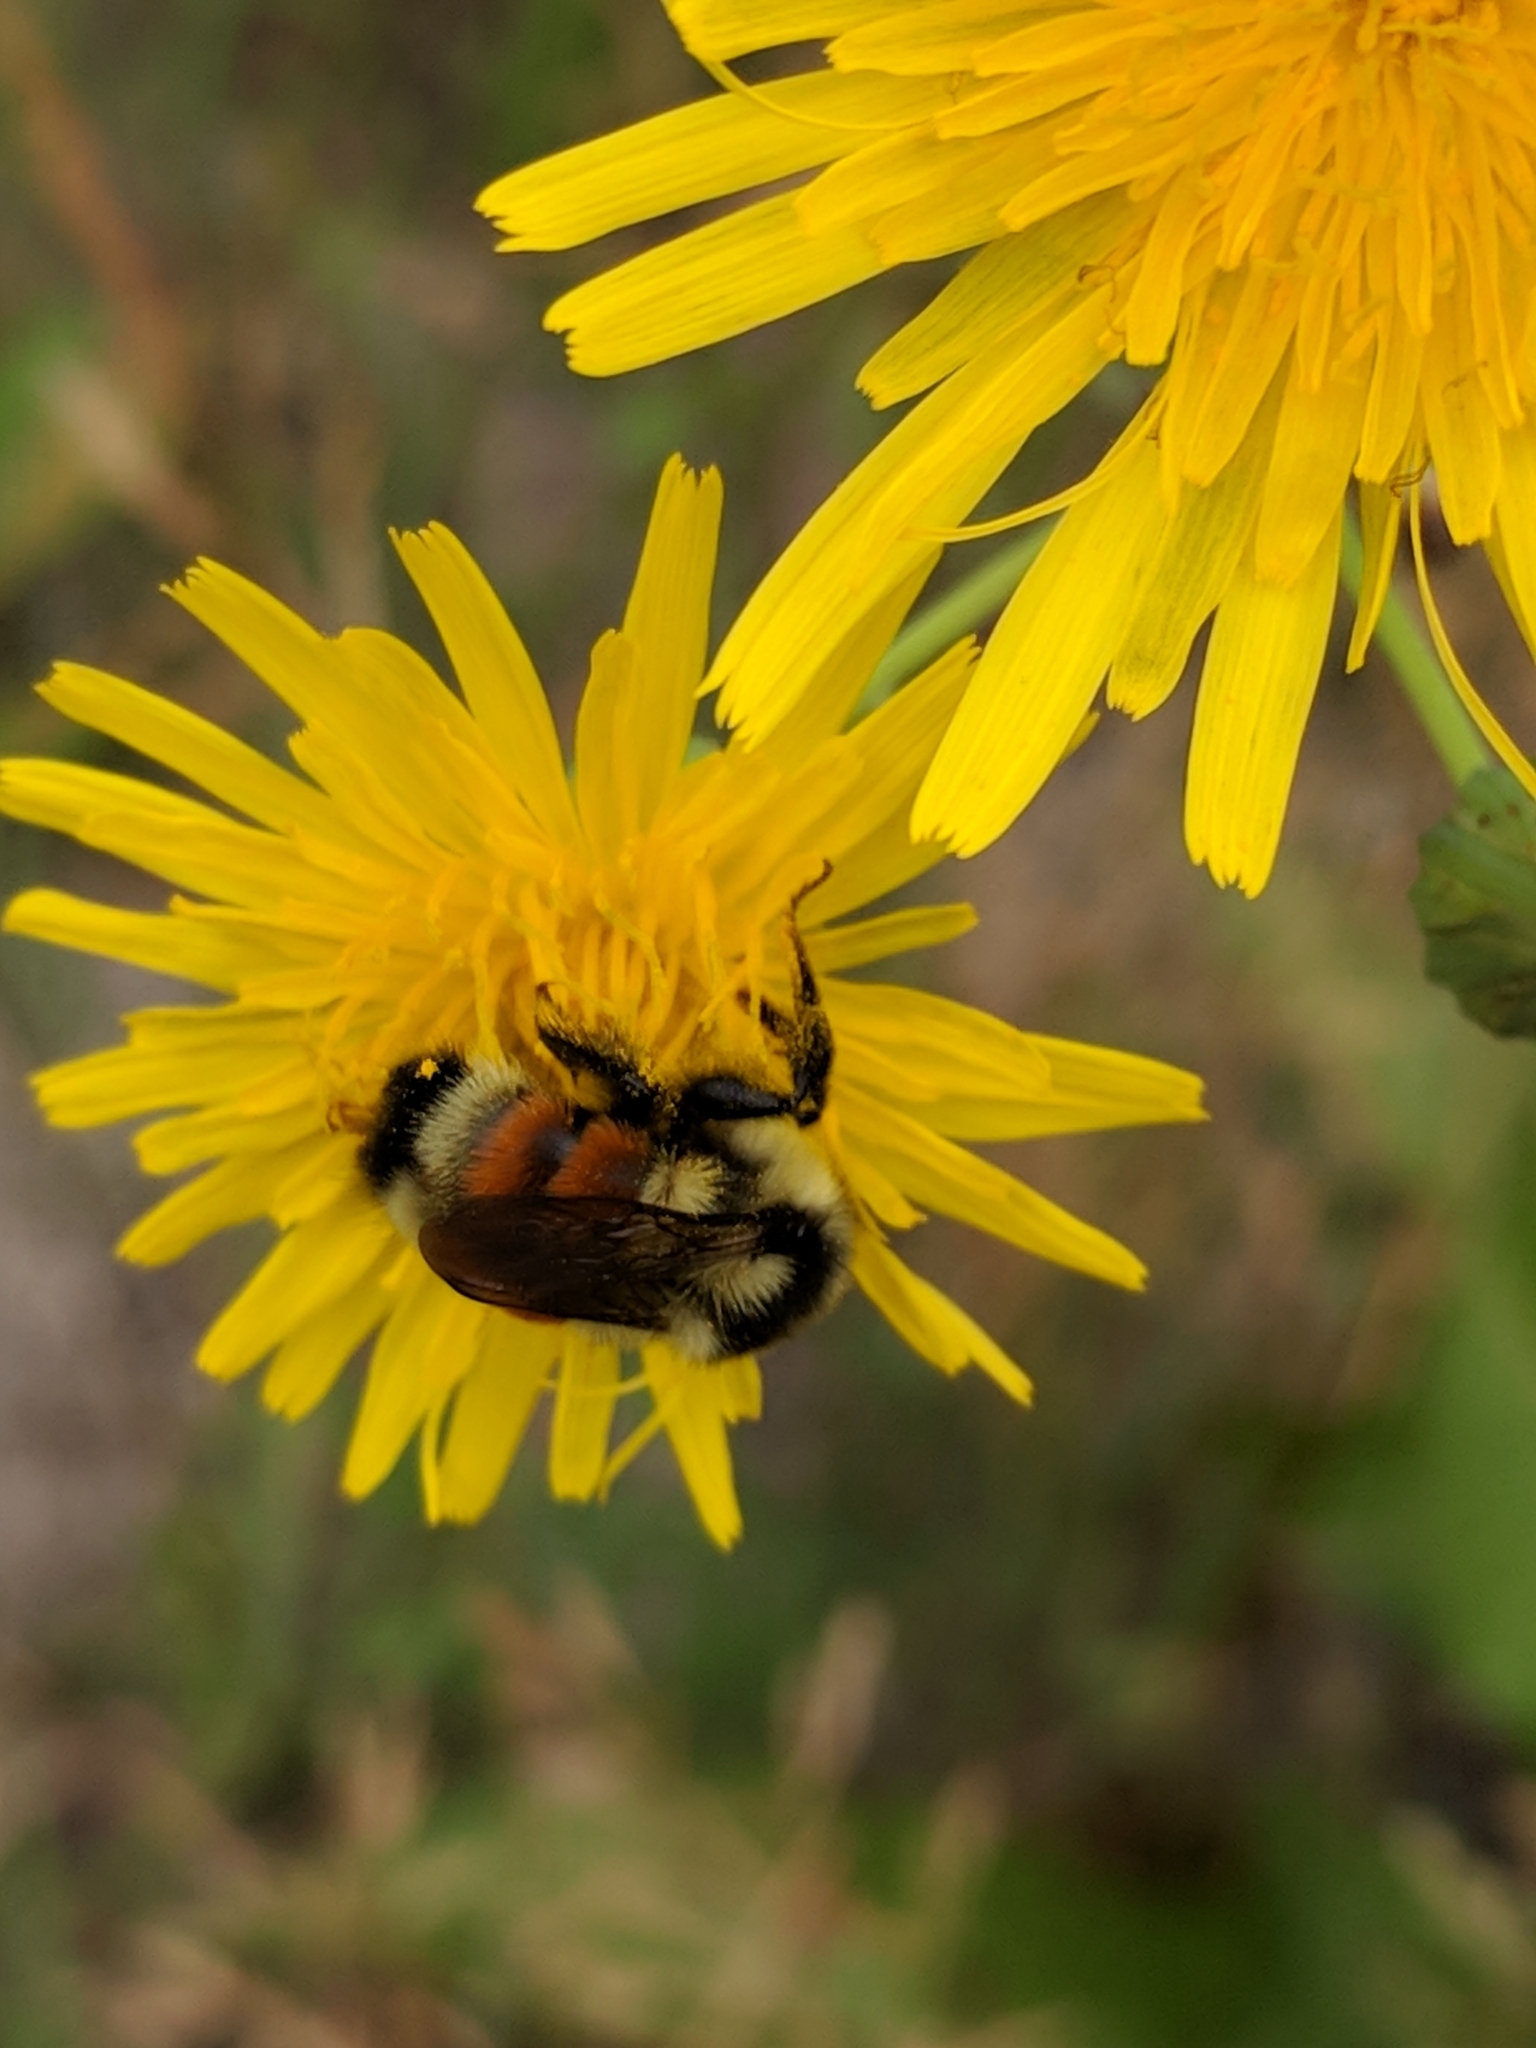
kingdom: Animalia
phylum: Arthropoda
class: Insecta
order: Hymenoptera
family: Apidae
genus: Bombus
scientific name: Bombus ternarius
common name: Tri-colored bumble bee
